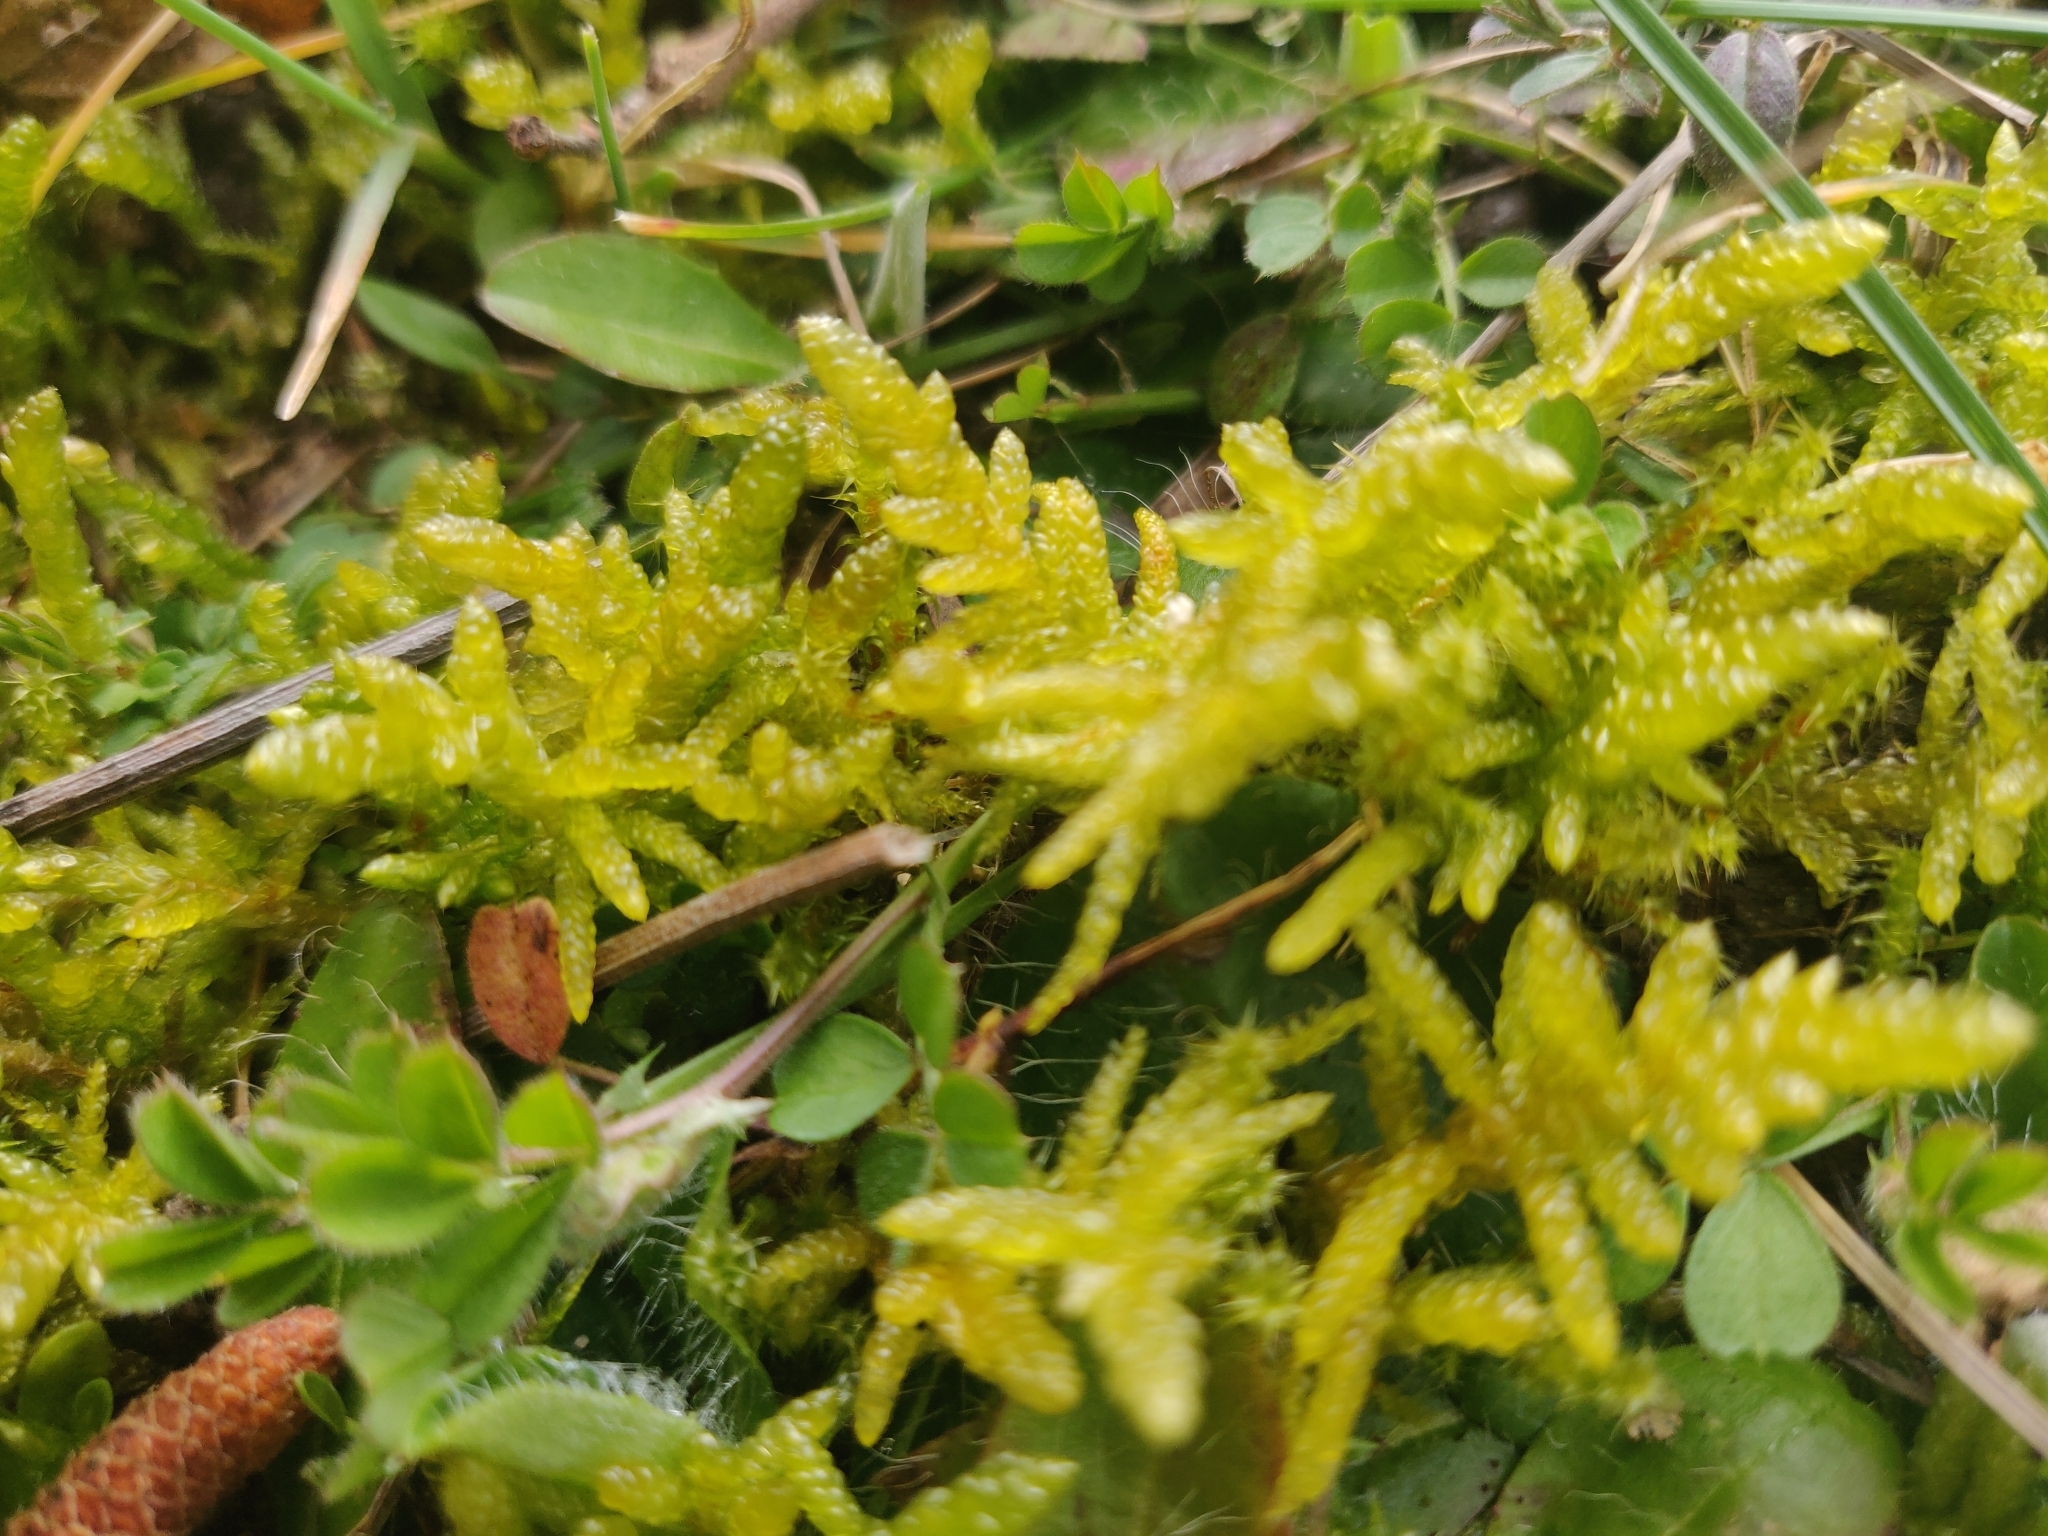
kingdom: Plantae
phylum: Bryophyta
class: Bryopsida
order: Hypnales
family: Brachytheciaceae
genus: Pseudoscleropodium
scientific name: Pseudoscleropodium purum
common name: Neat feather-moss
